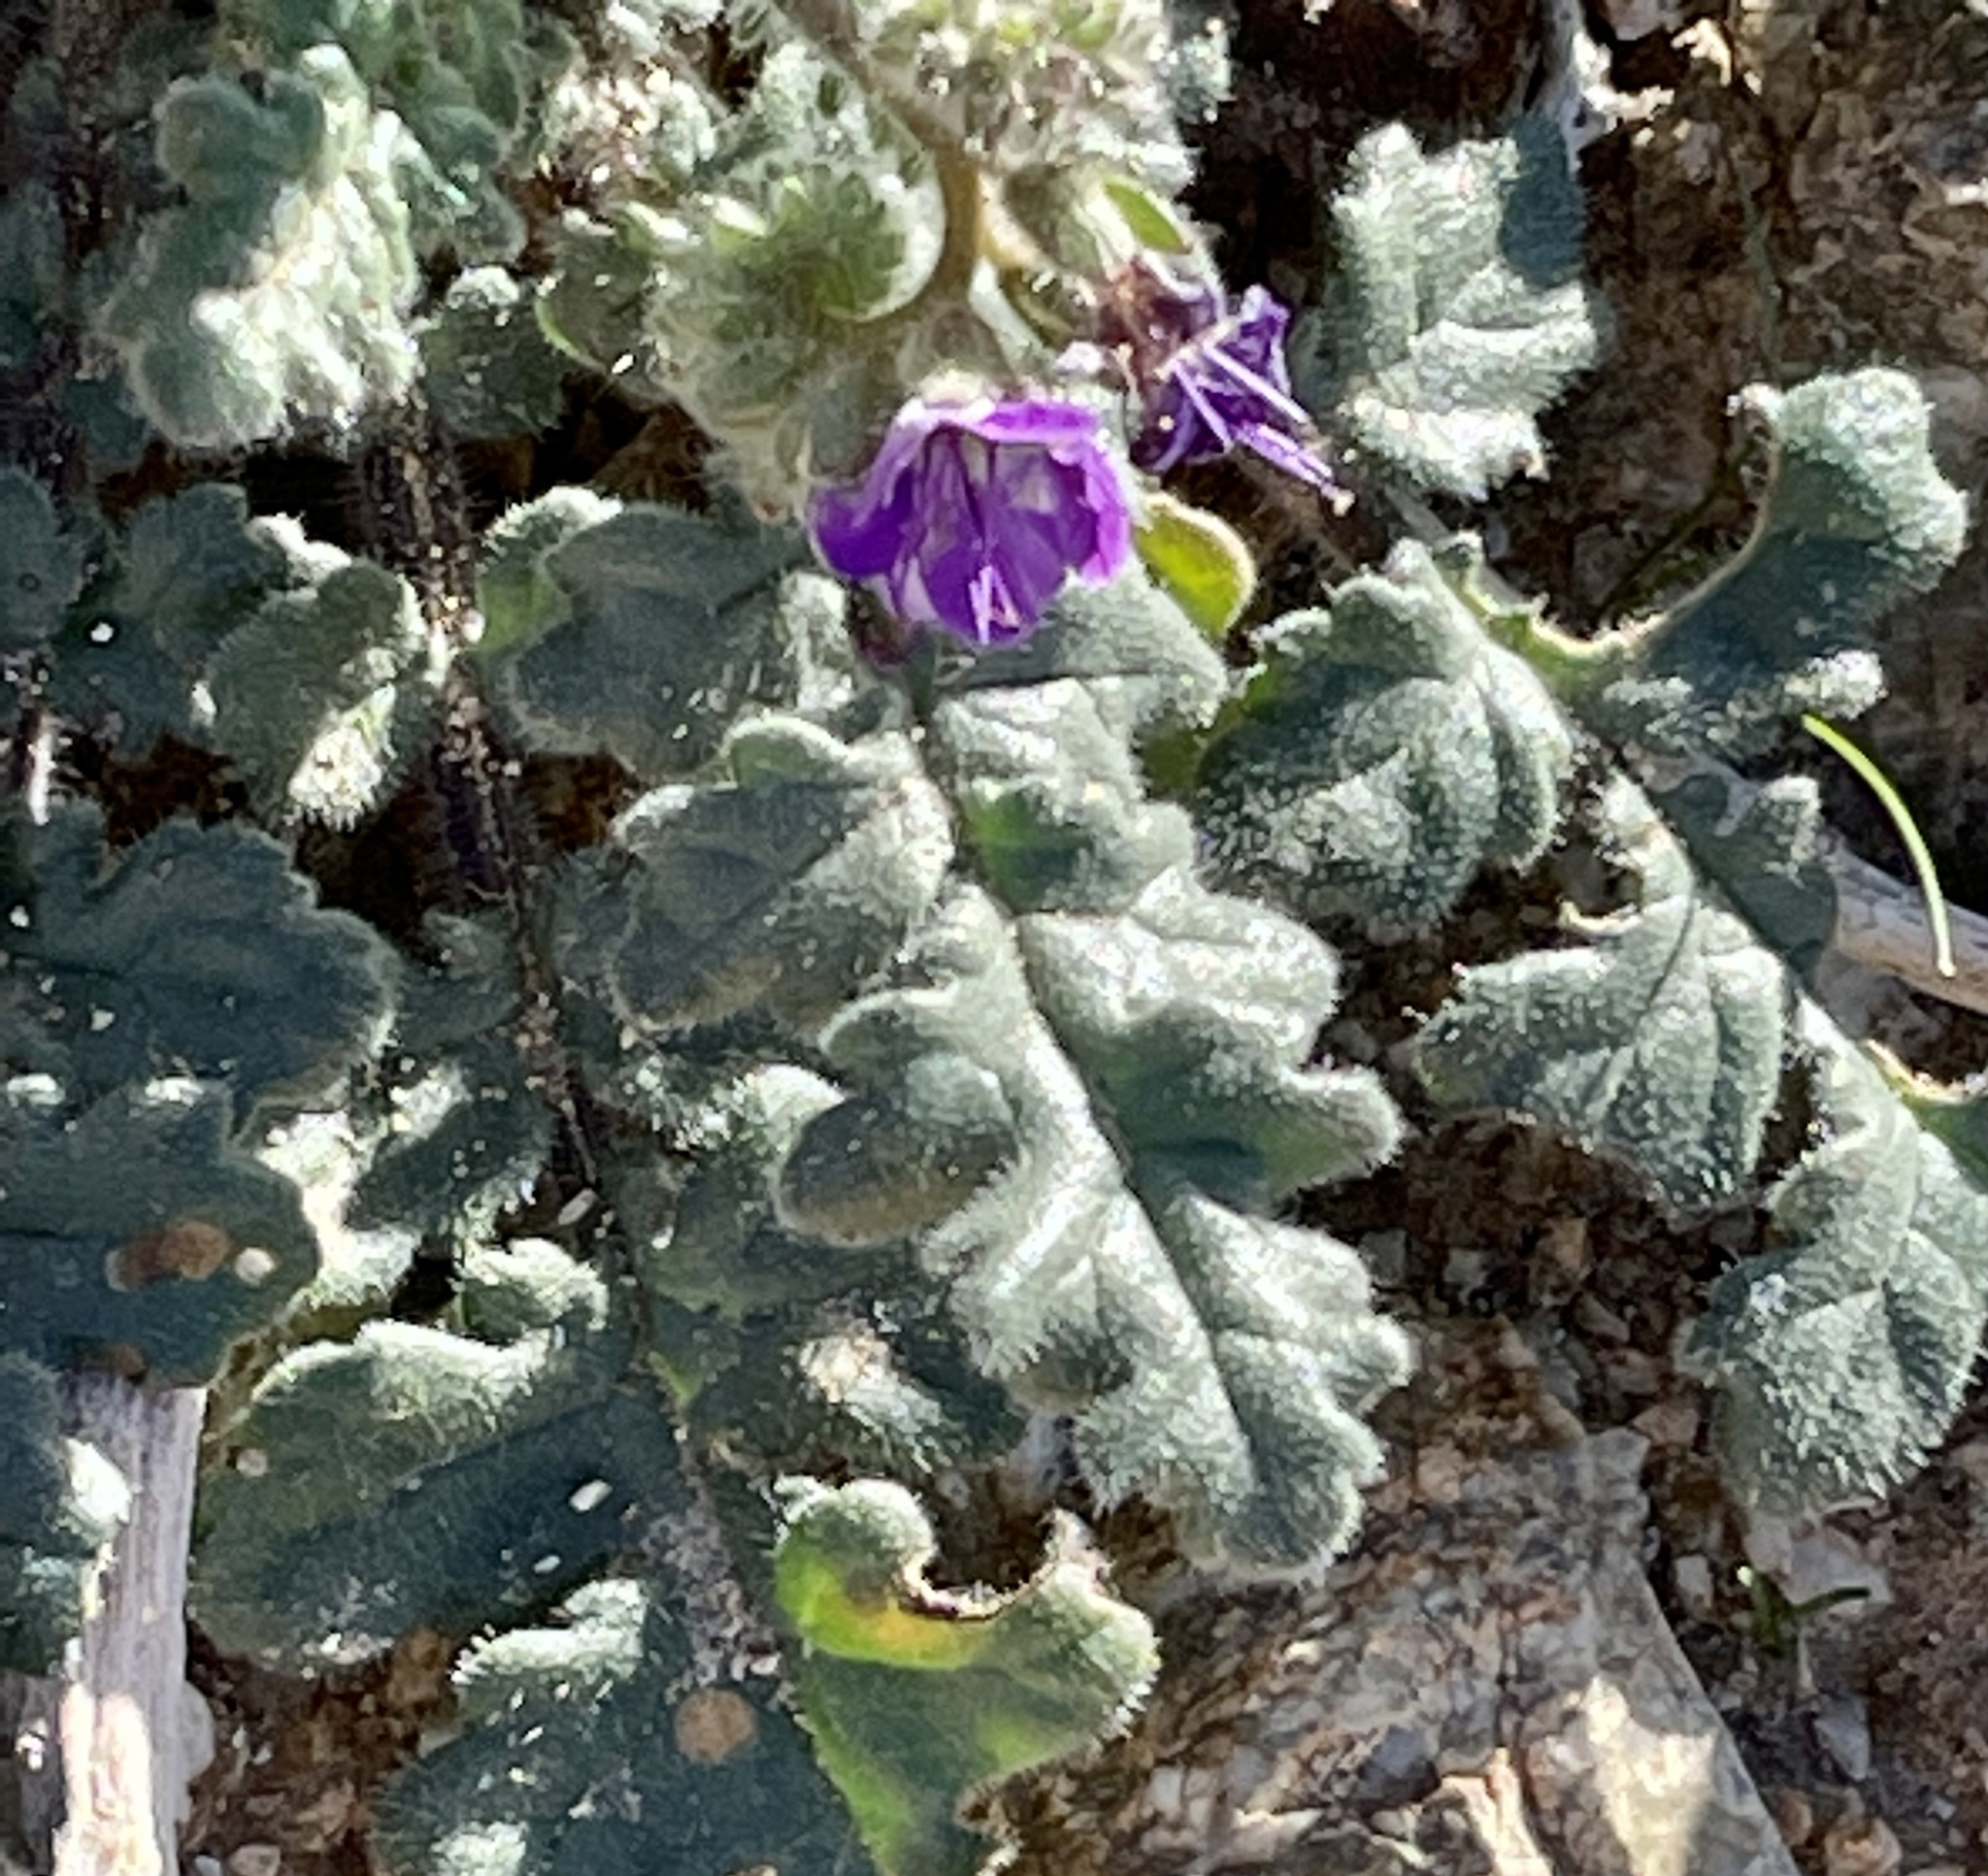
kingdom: Plantae
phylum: Tracheophyta
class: Magnoliopsida
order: Boraginales
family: Hydrophyllaceae
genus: Phacelia
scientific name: Phacelia crenulata
